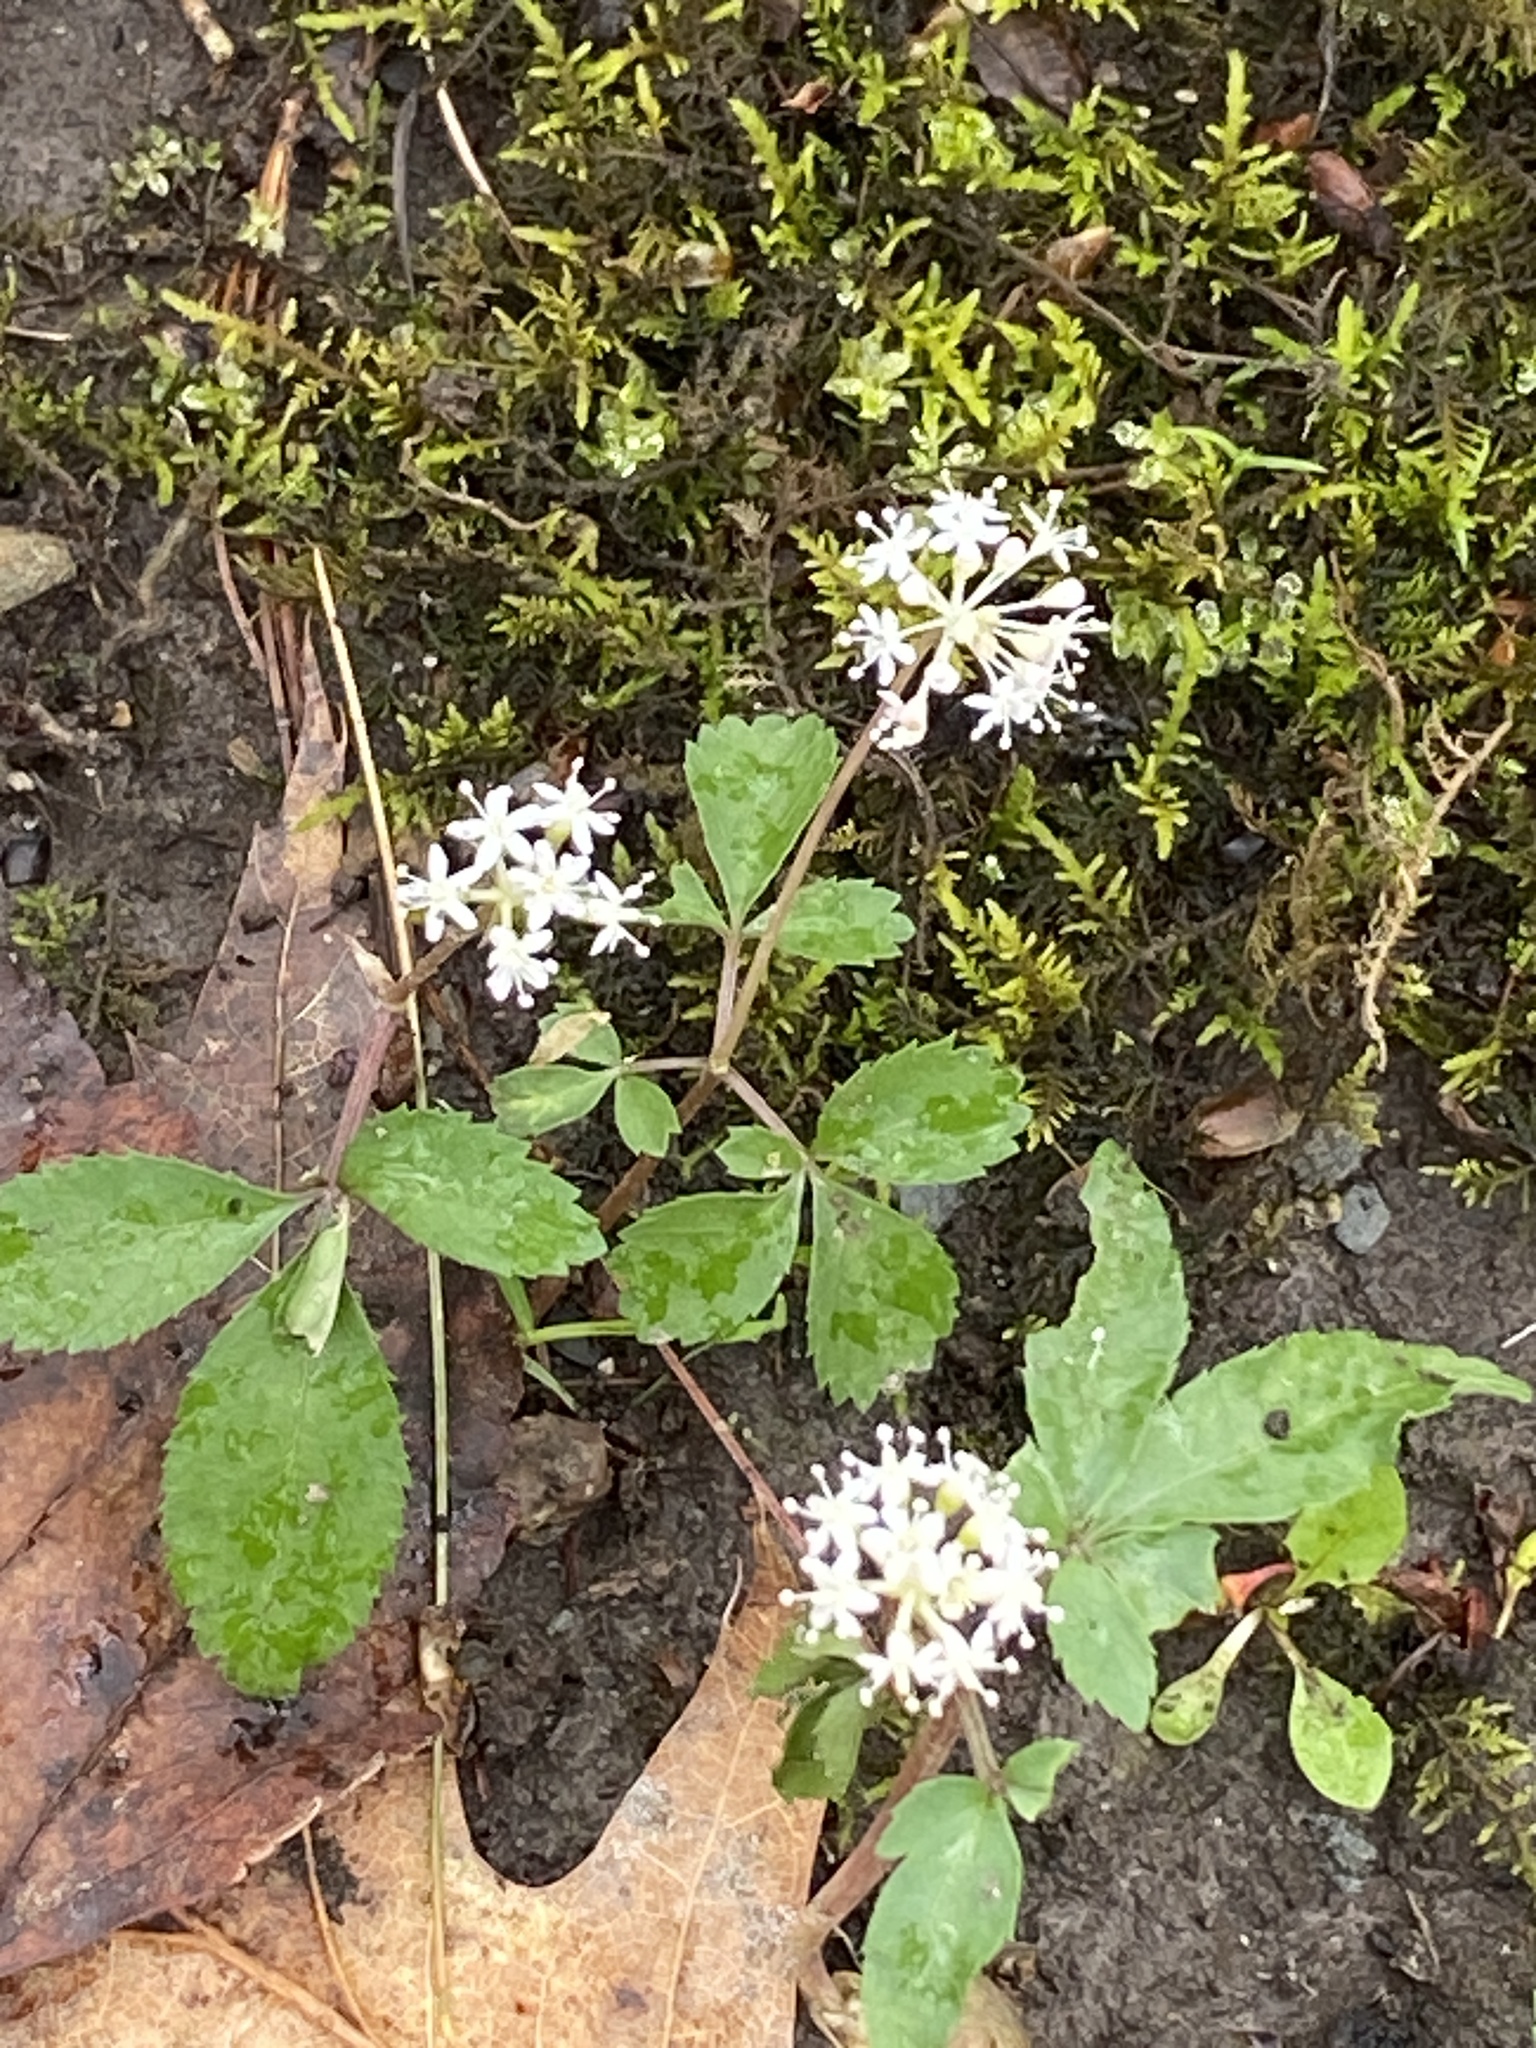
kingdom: Plantae
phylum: Tracheophyta
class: Magnoliopsida
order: Apiales
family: Araliaceae
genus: Panax
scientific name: Panax trifolius
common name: Dwarf ginseng
